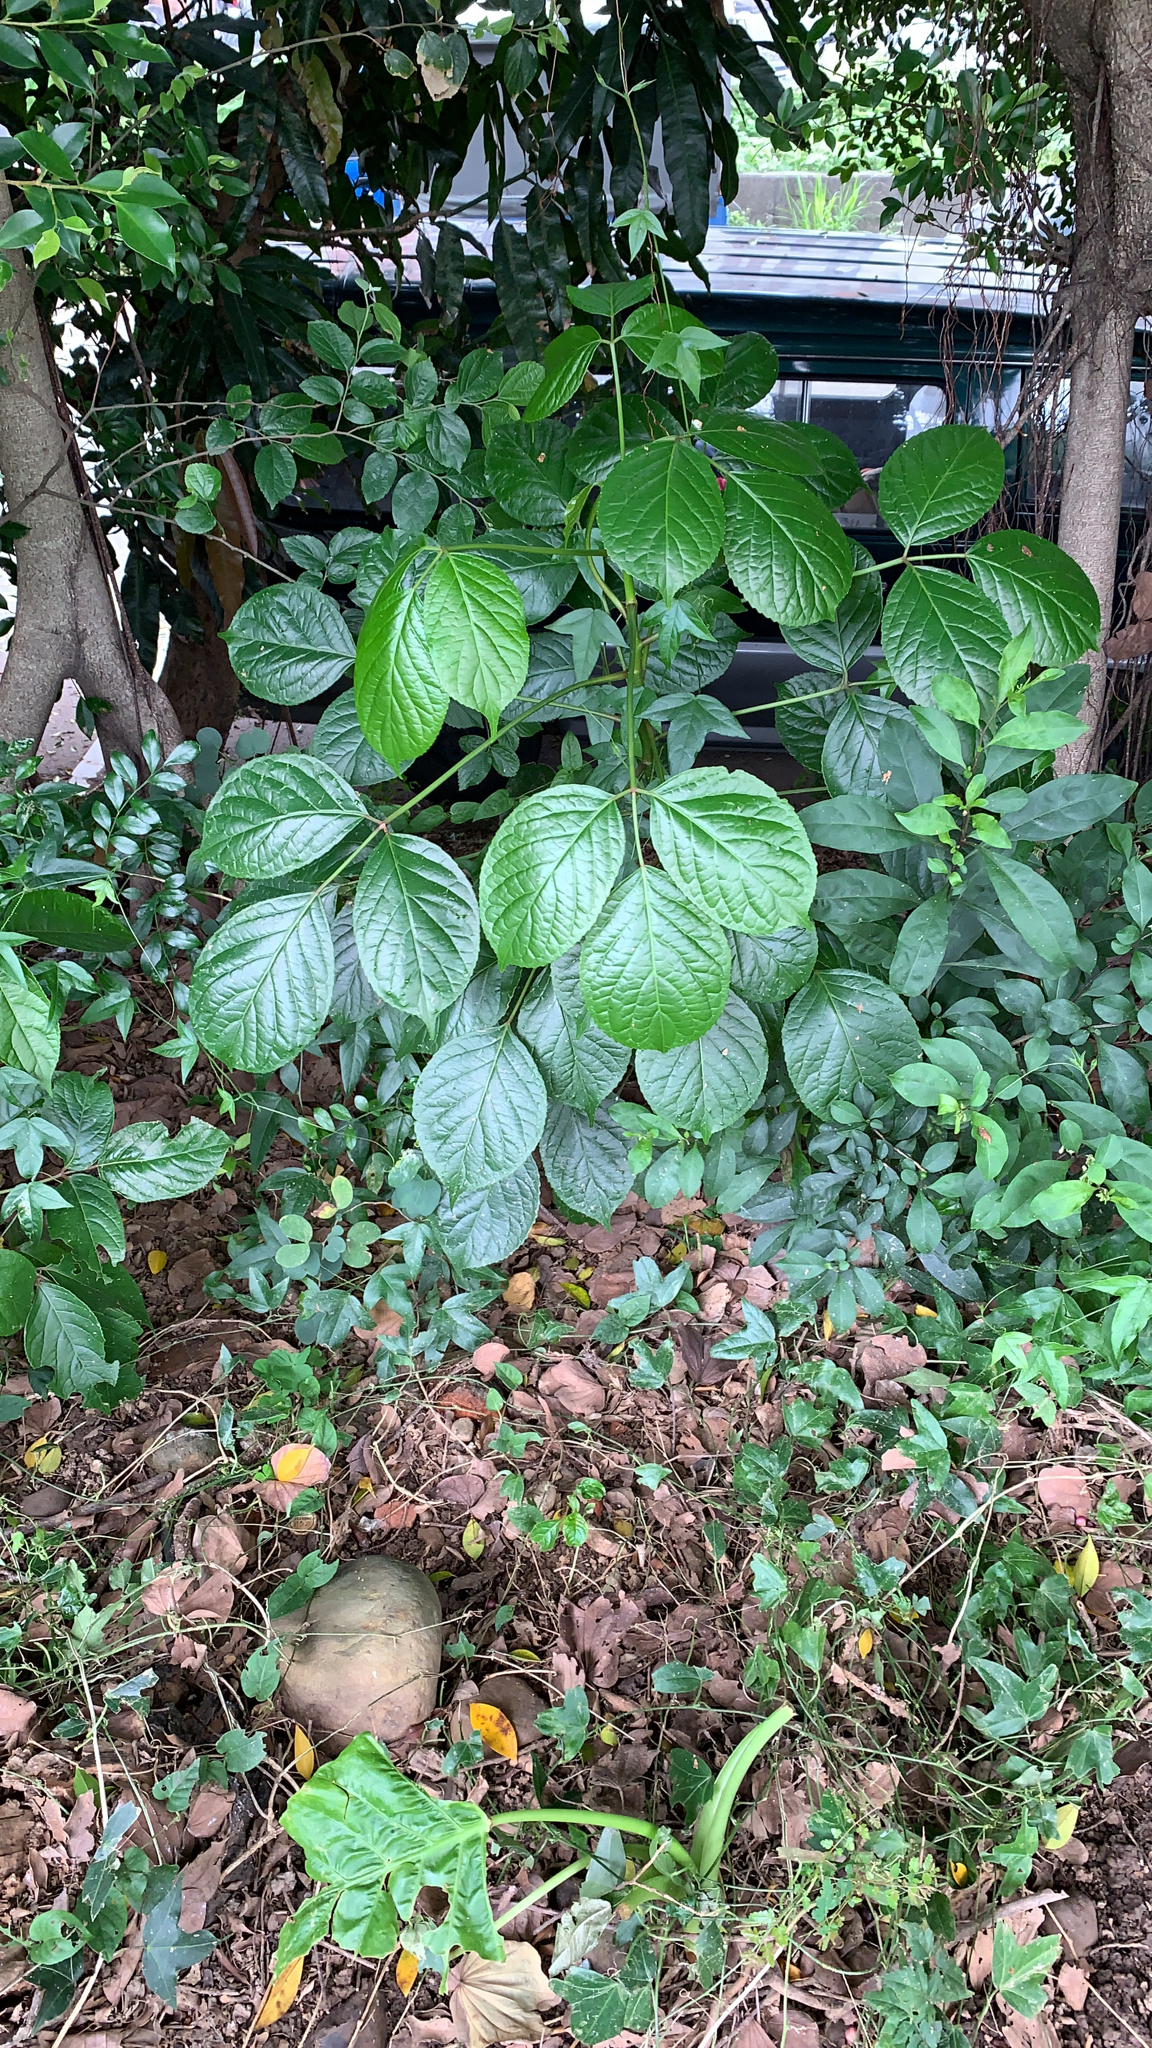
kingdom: Plantae
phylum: Tracheophyta
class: Magnoliopsida
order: Malpighiales
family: Phyllanthaceae
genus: Bischofia
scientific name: Bischofia javanica
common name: Javanese bishopwood
